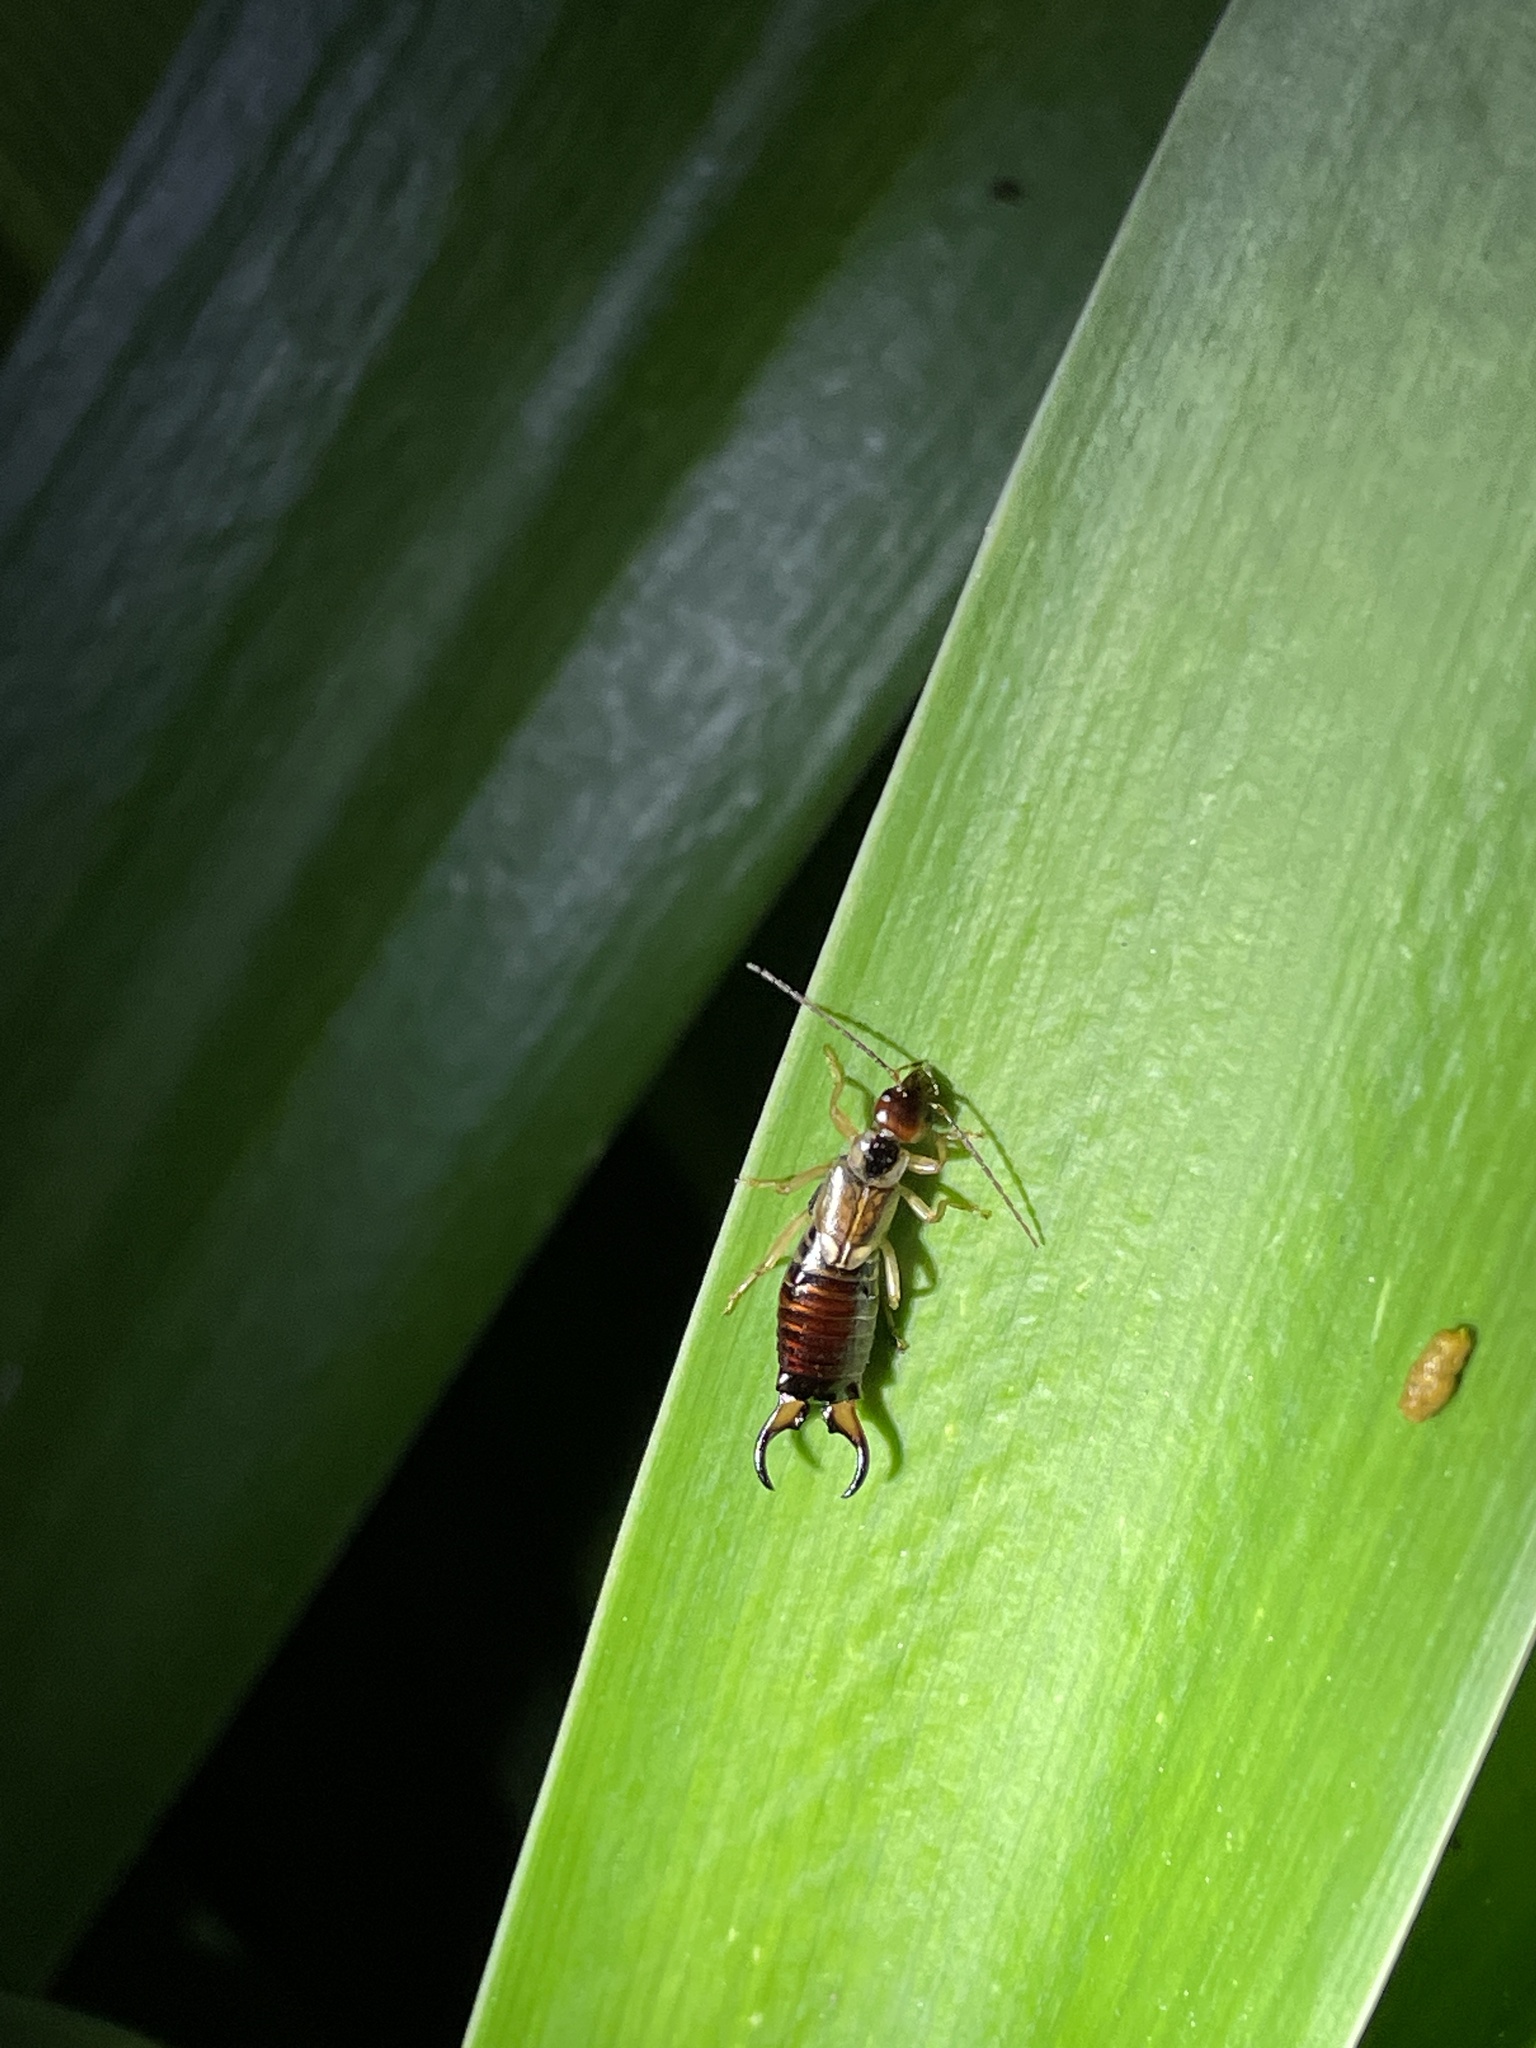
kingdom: Animalia
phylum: Arthropoda
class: Insecta
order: Dermaptera
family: Forficulidae
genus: Forficula
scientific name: Forficula
